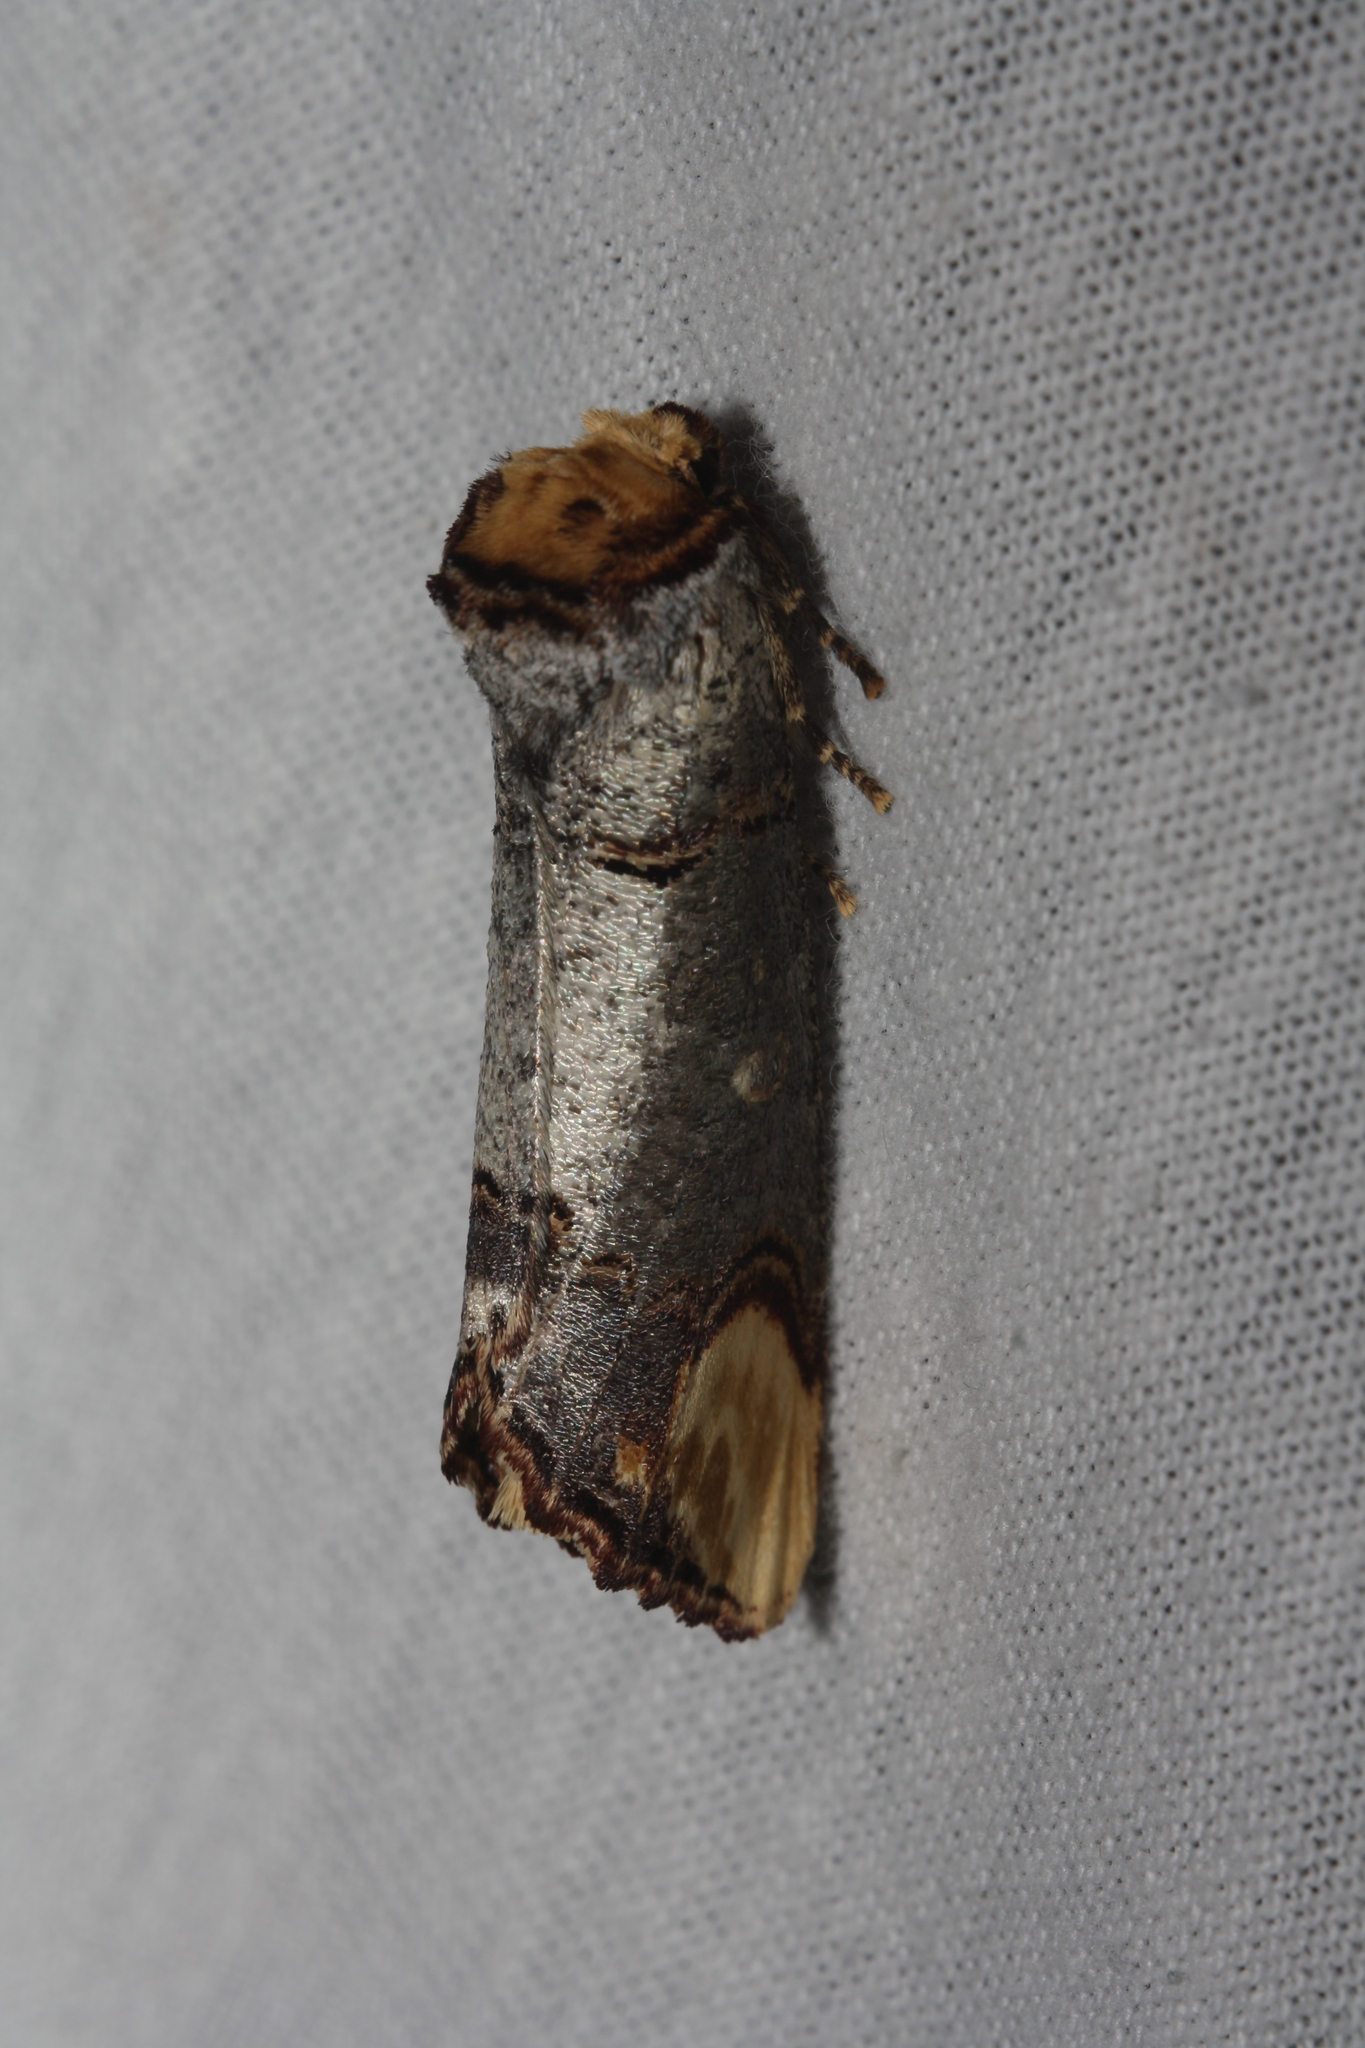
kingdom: Animalia
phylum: Arthropoda
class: Insecta
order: Lepidoptera
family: Notodontidae
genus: Phalera
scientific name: Phalera bucephala
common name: Buff-tip
